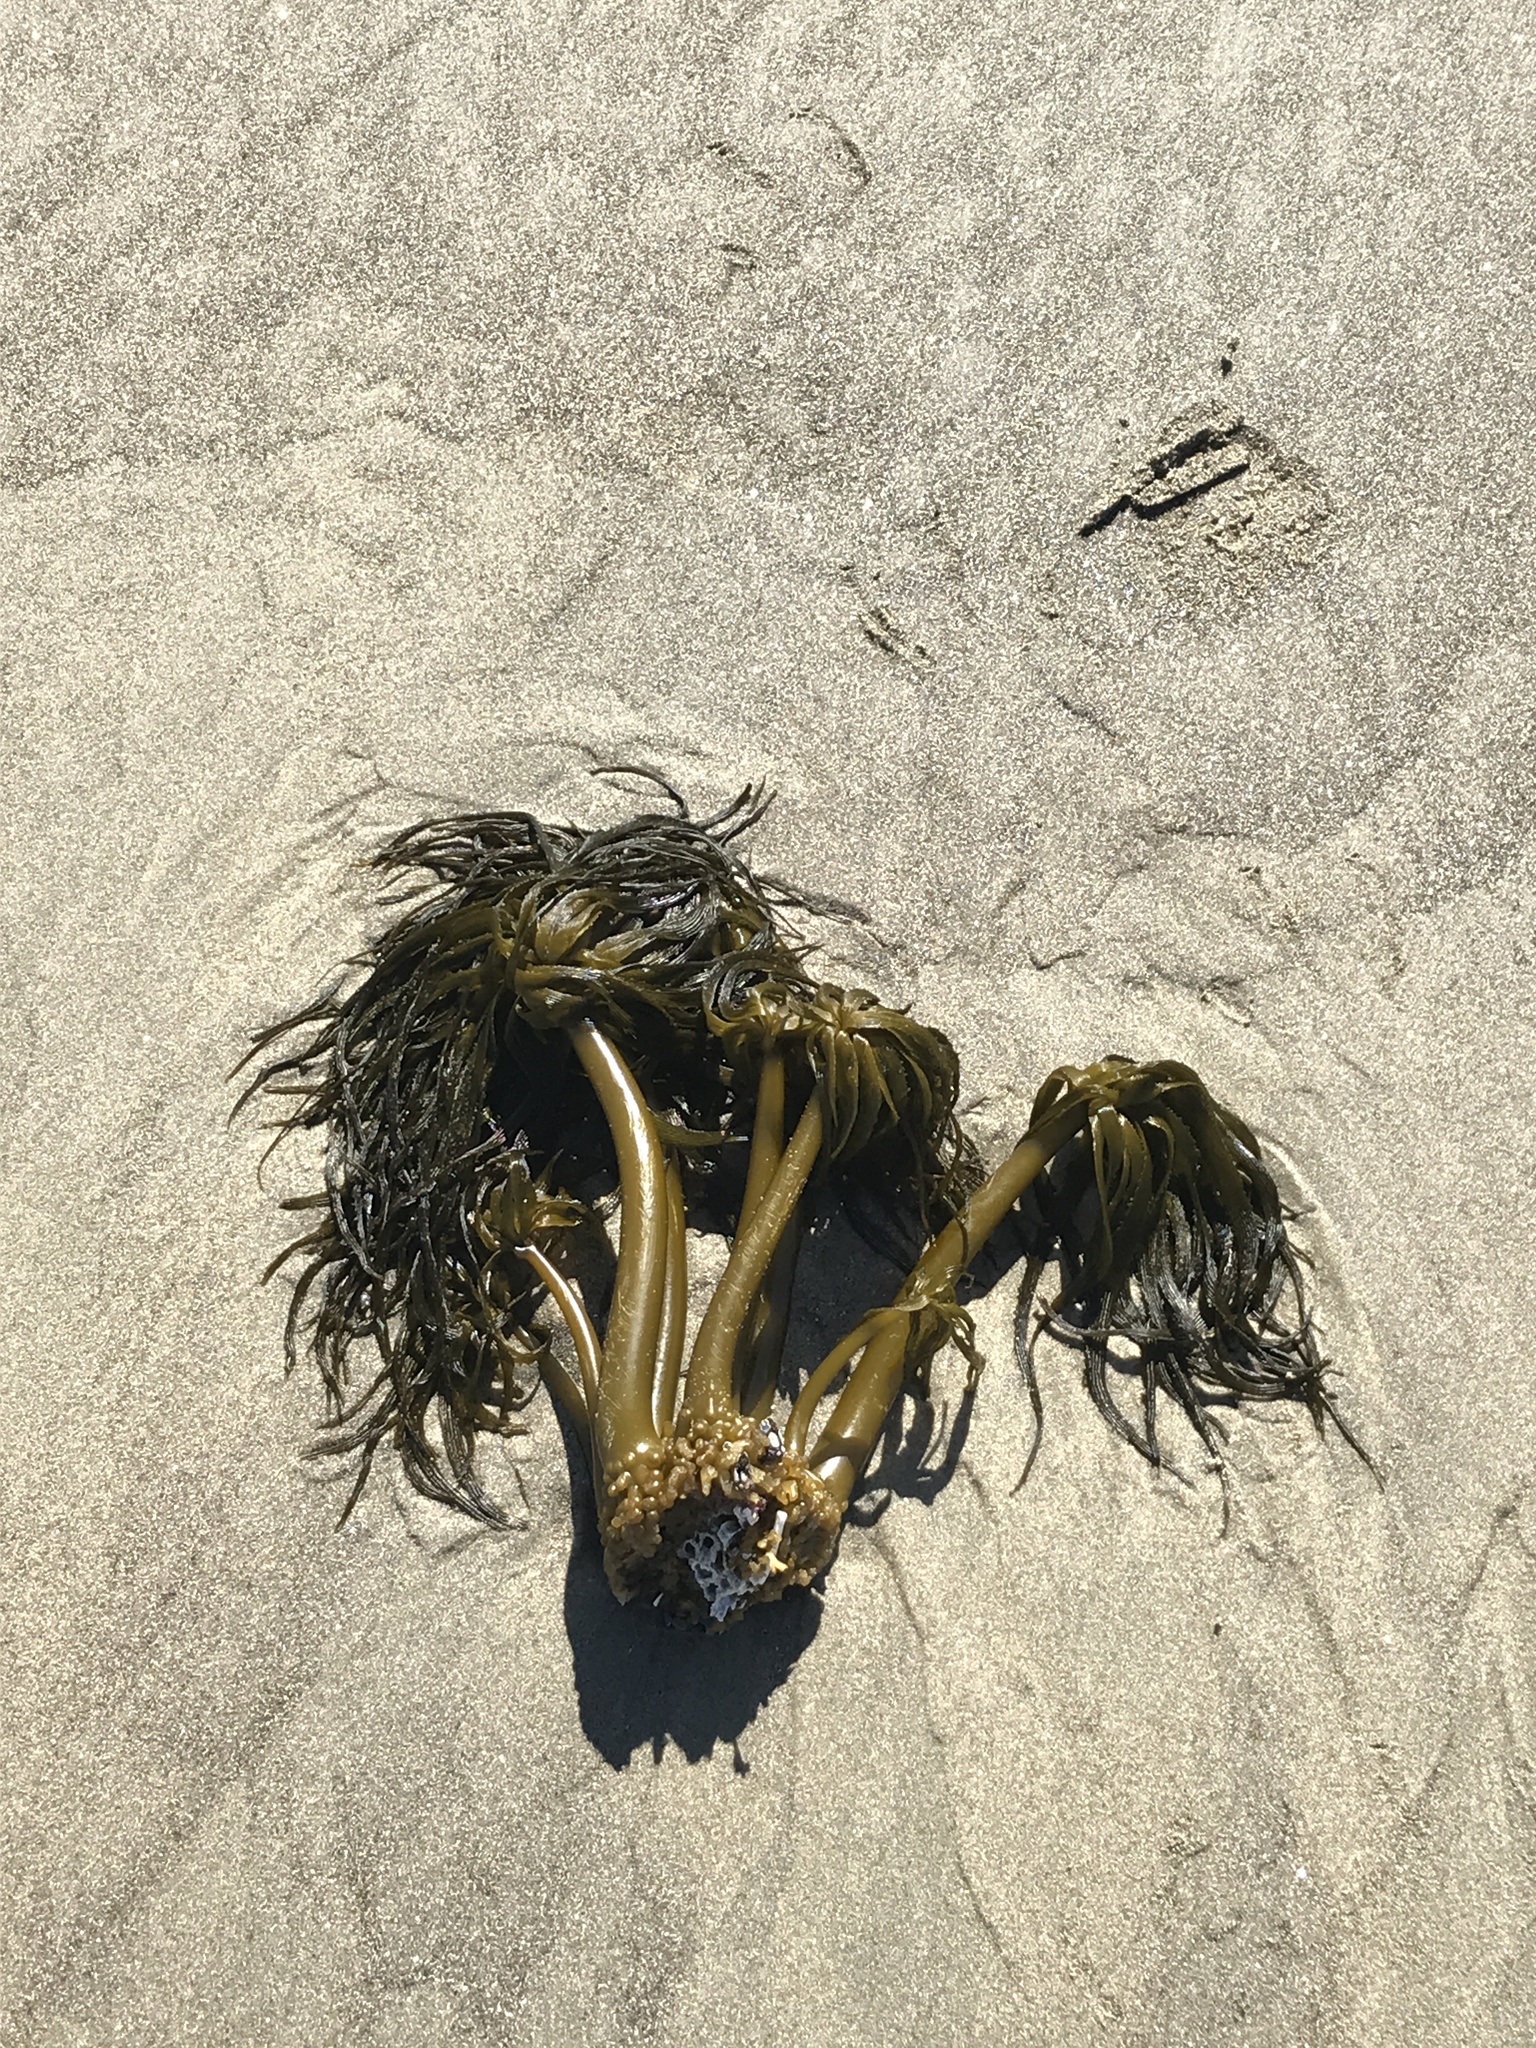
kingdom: Chromista
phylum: Ochrophyta
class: Phaeophyceae
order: Laminariales
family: Laminariaceae
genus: Postelsia
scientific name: Postelsia palmiformis
